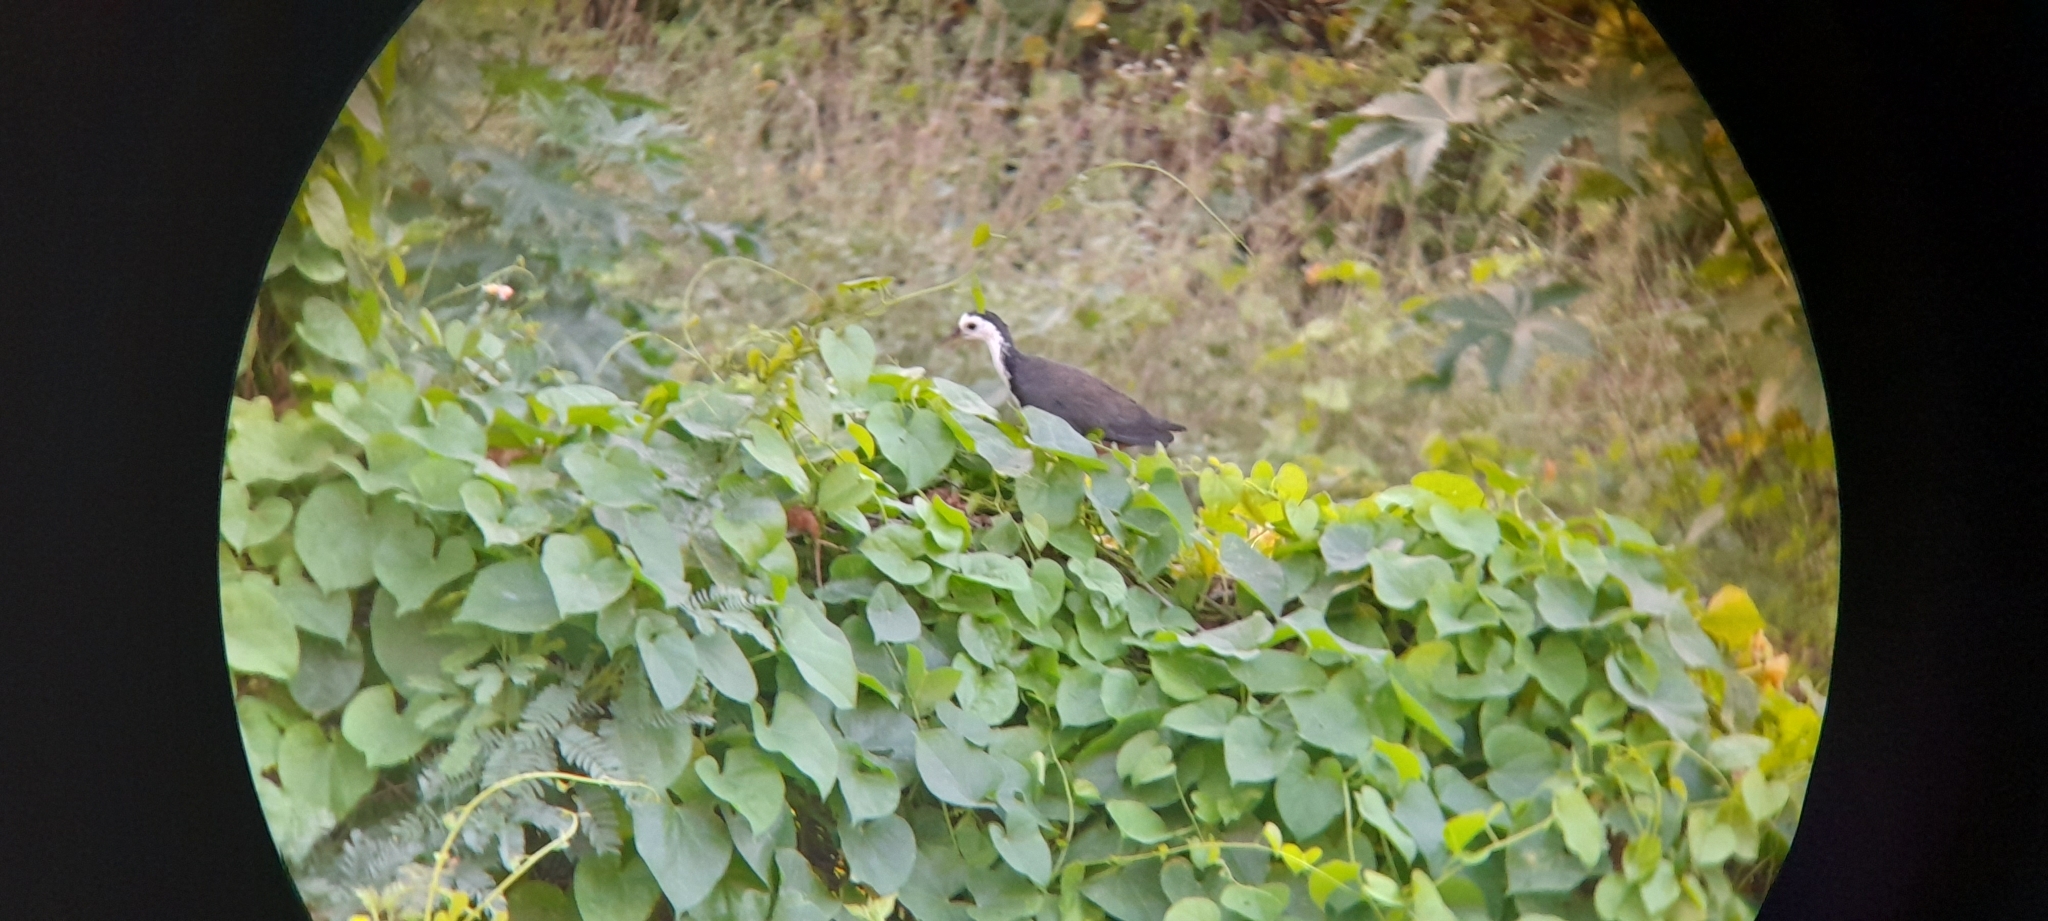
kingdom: Animalia
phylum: Chordata
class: Aves
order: Gruiformes
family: Rallidae
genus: Amaurornis
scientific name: Amaurornis phoenicurus
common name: White-breasted waterhen
